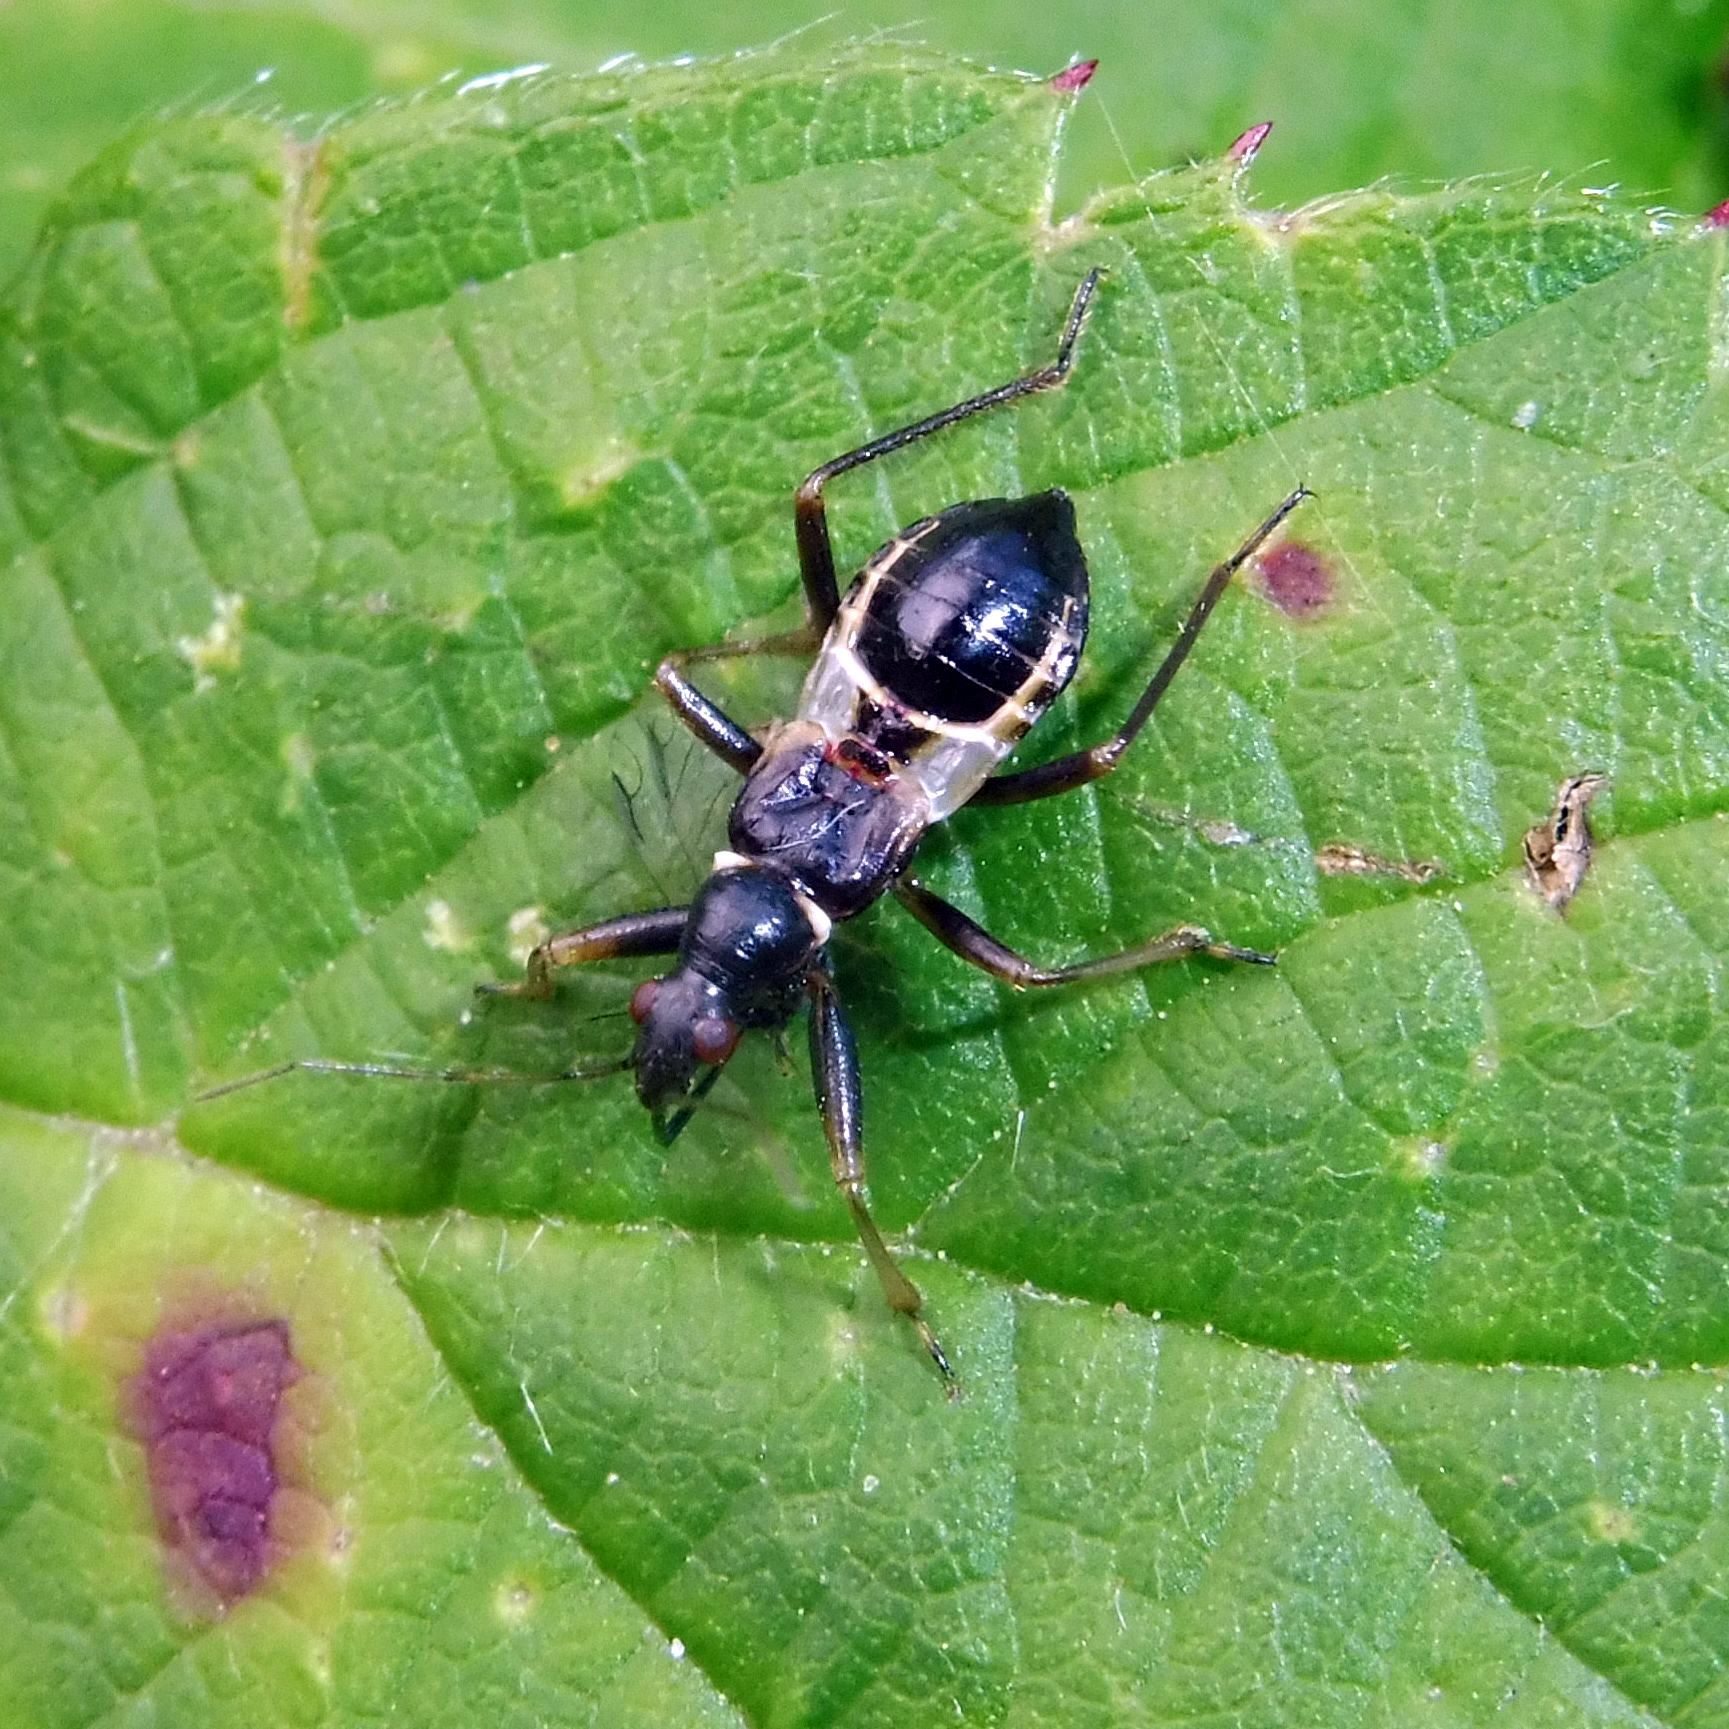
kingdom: Animalia
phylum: Arthropoda
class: Insecta
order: Hemiptera
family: Nabidae
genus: Himacerus
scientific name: Himacerus mirmicoides
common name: Ant damsel bug
